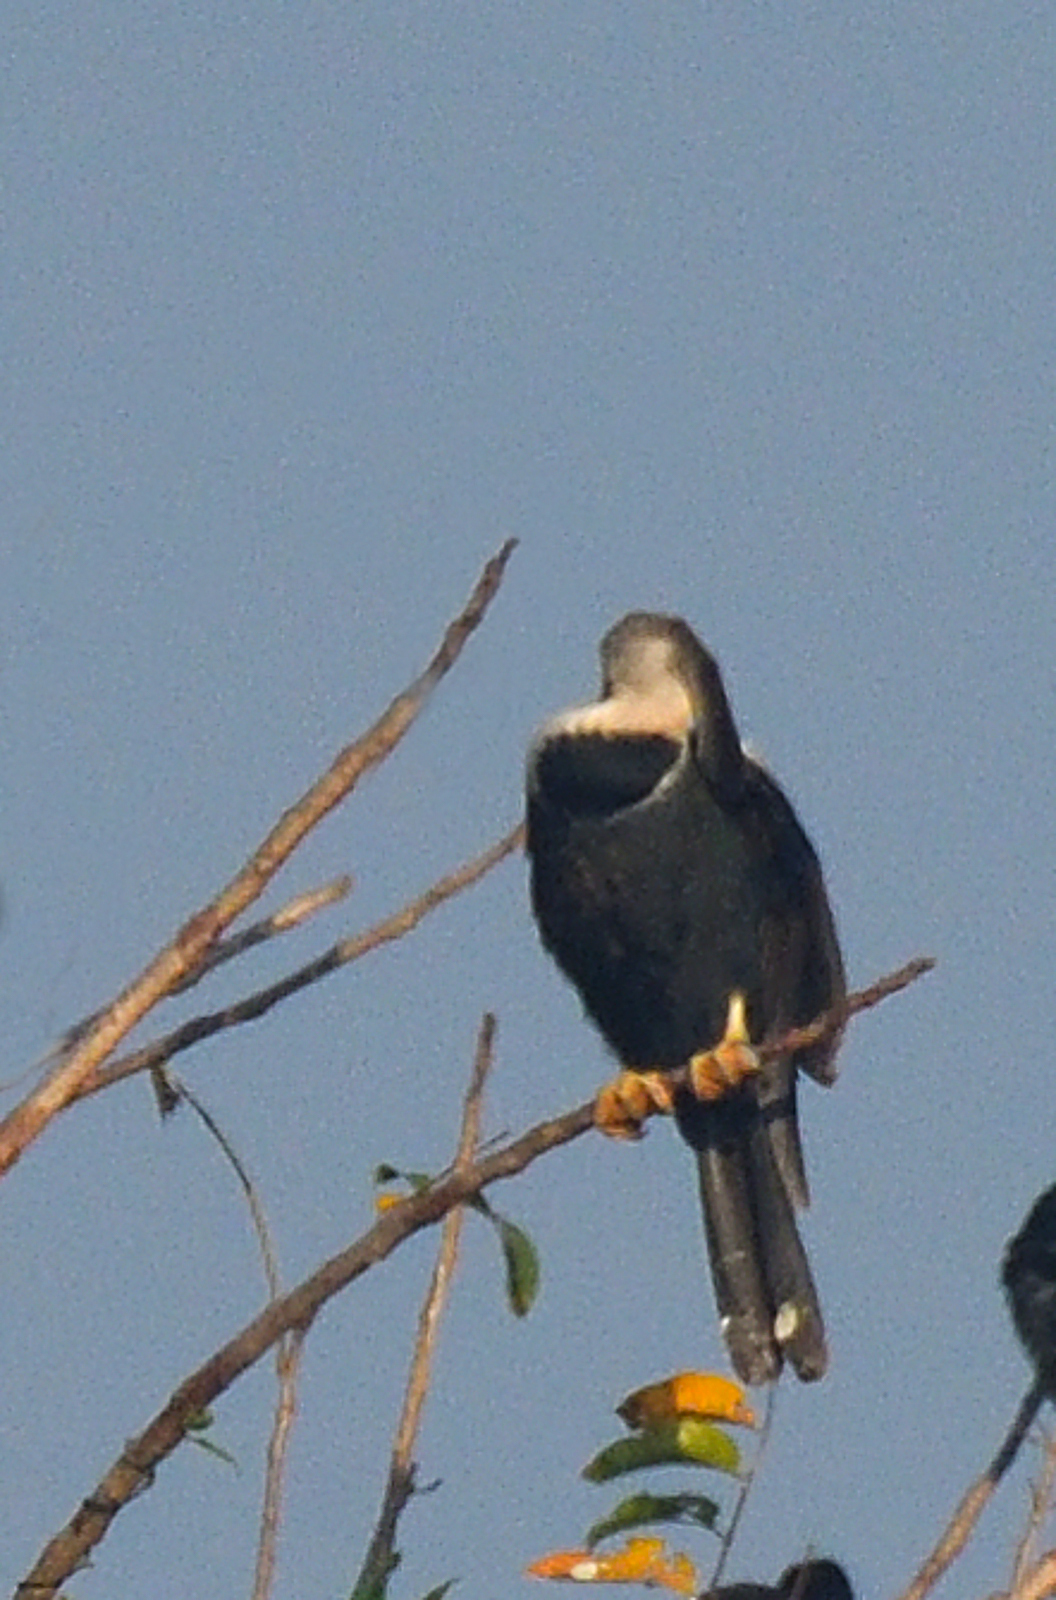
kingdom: Animalia
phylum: Chordata
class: Aves
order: Suliformes
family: Anhingidae
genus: Anhinga
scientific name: Anhinga melanogaster
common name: Oriental darter
